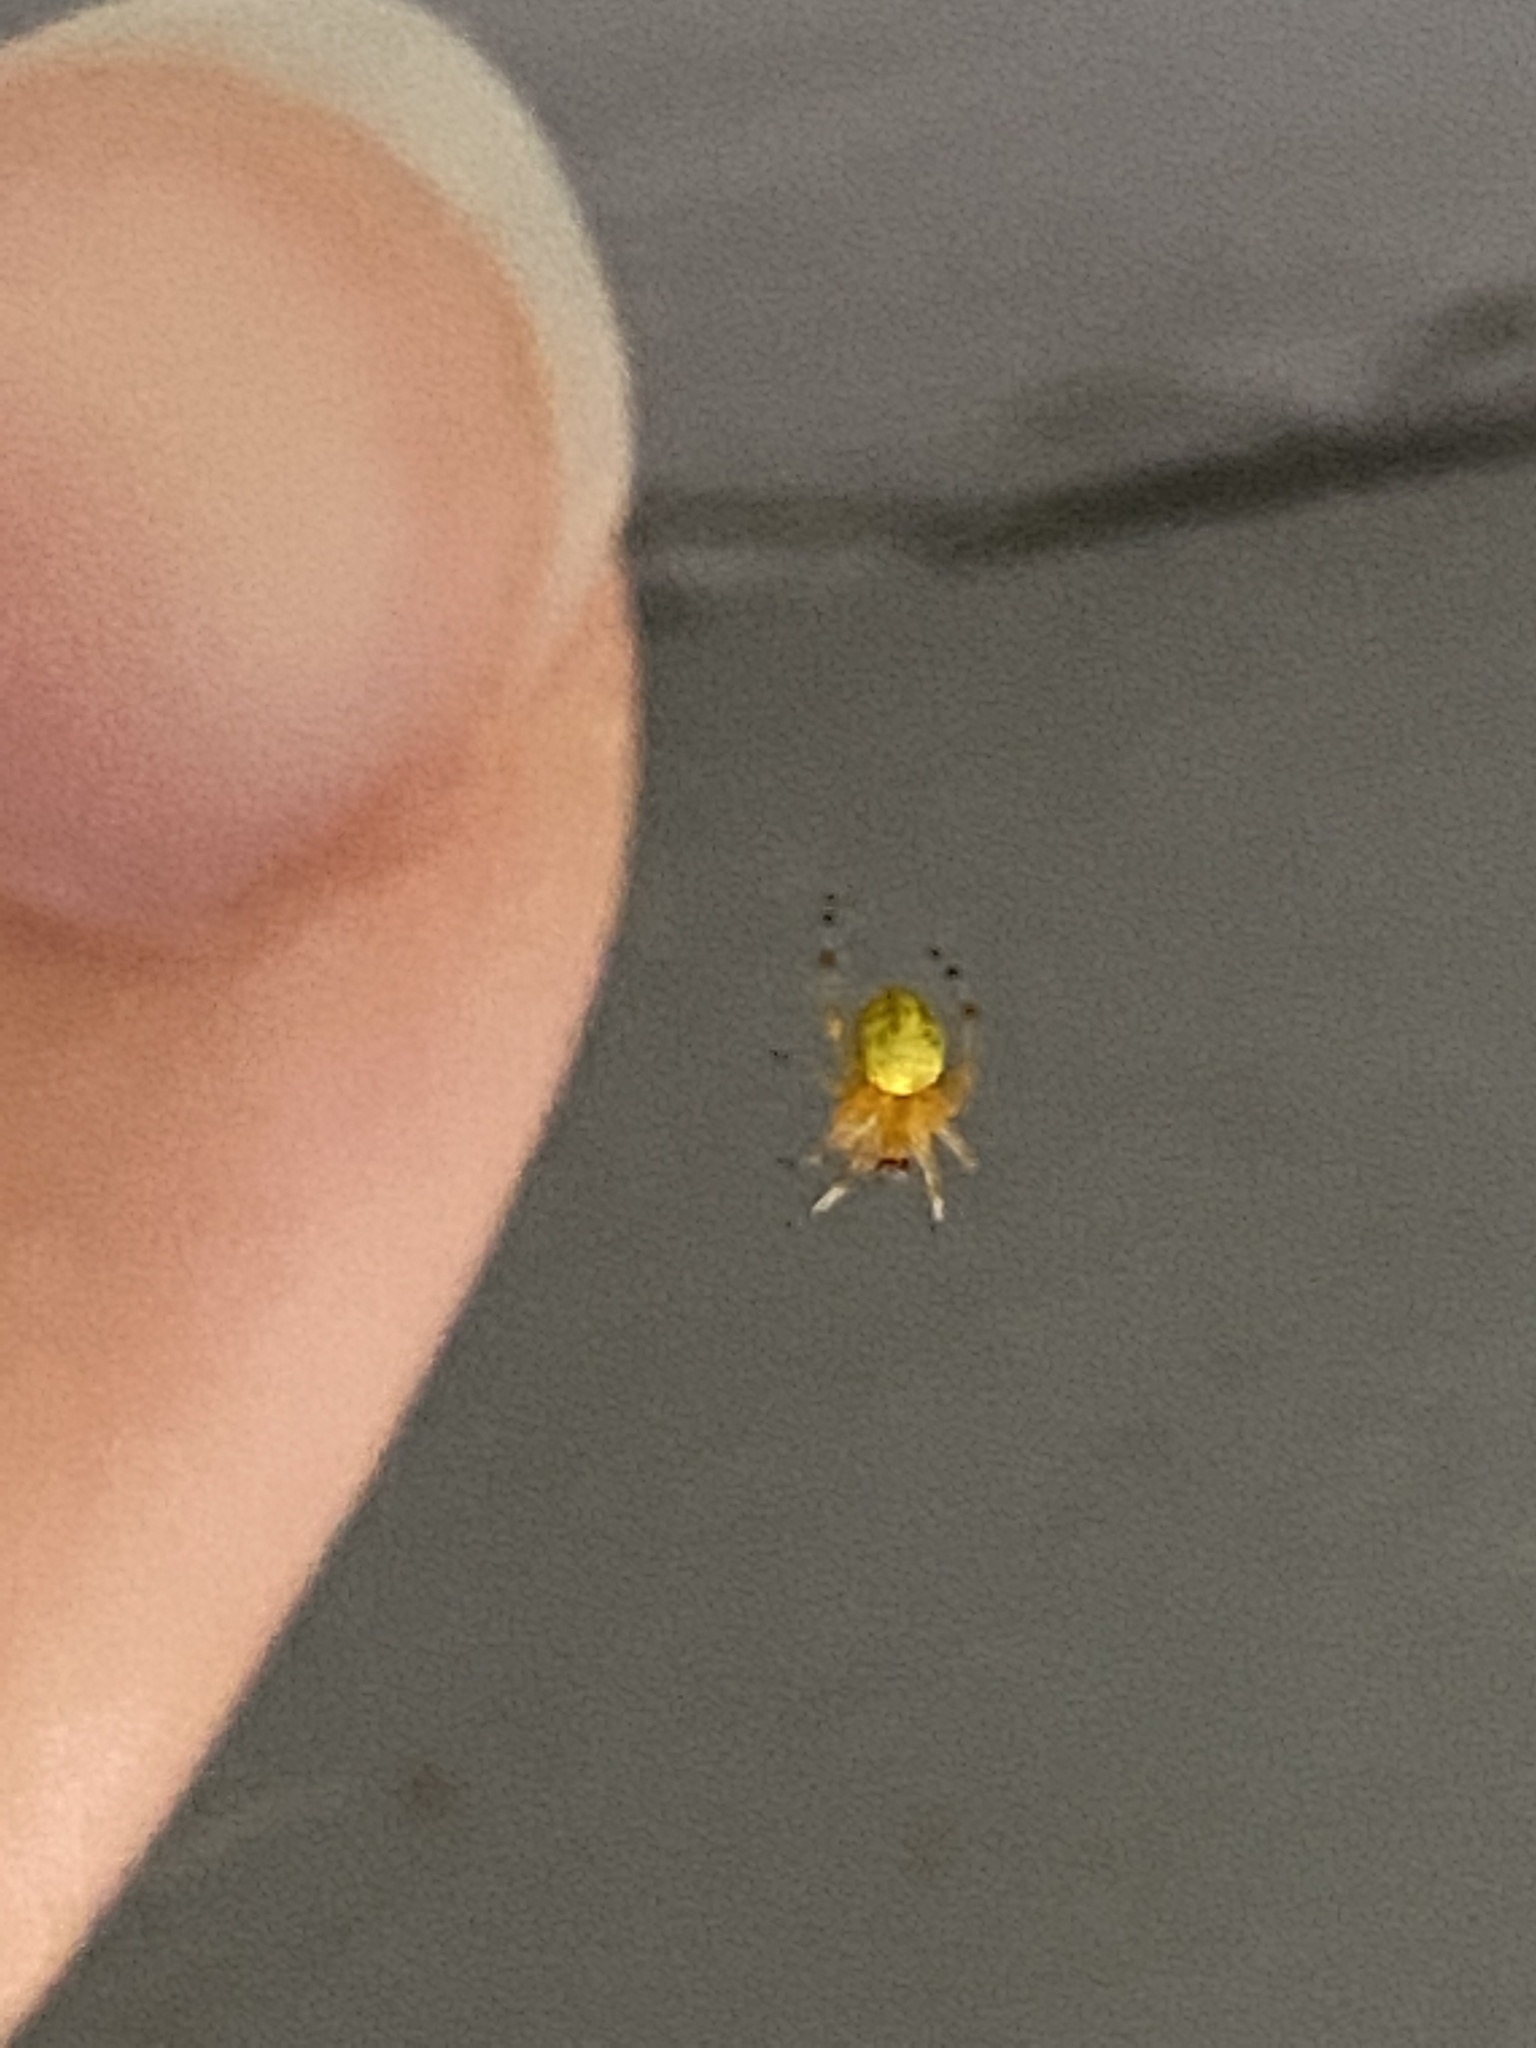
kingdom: Animalia
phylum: Arthropoda
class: Arachnida
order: Araneae
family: Araneidae
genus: Araneus
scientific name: Araneus marmoreus
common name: Marbled orbweaver
